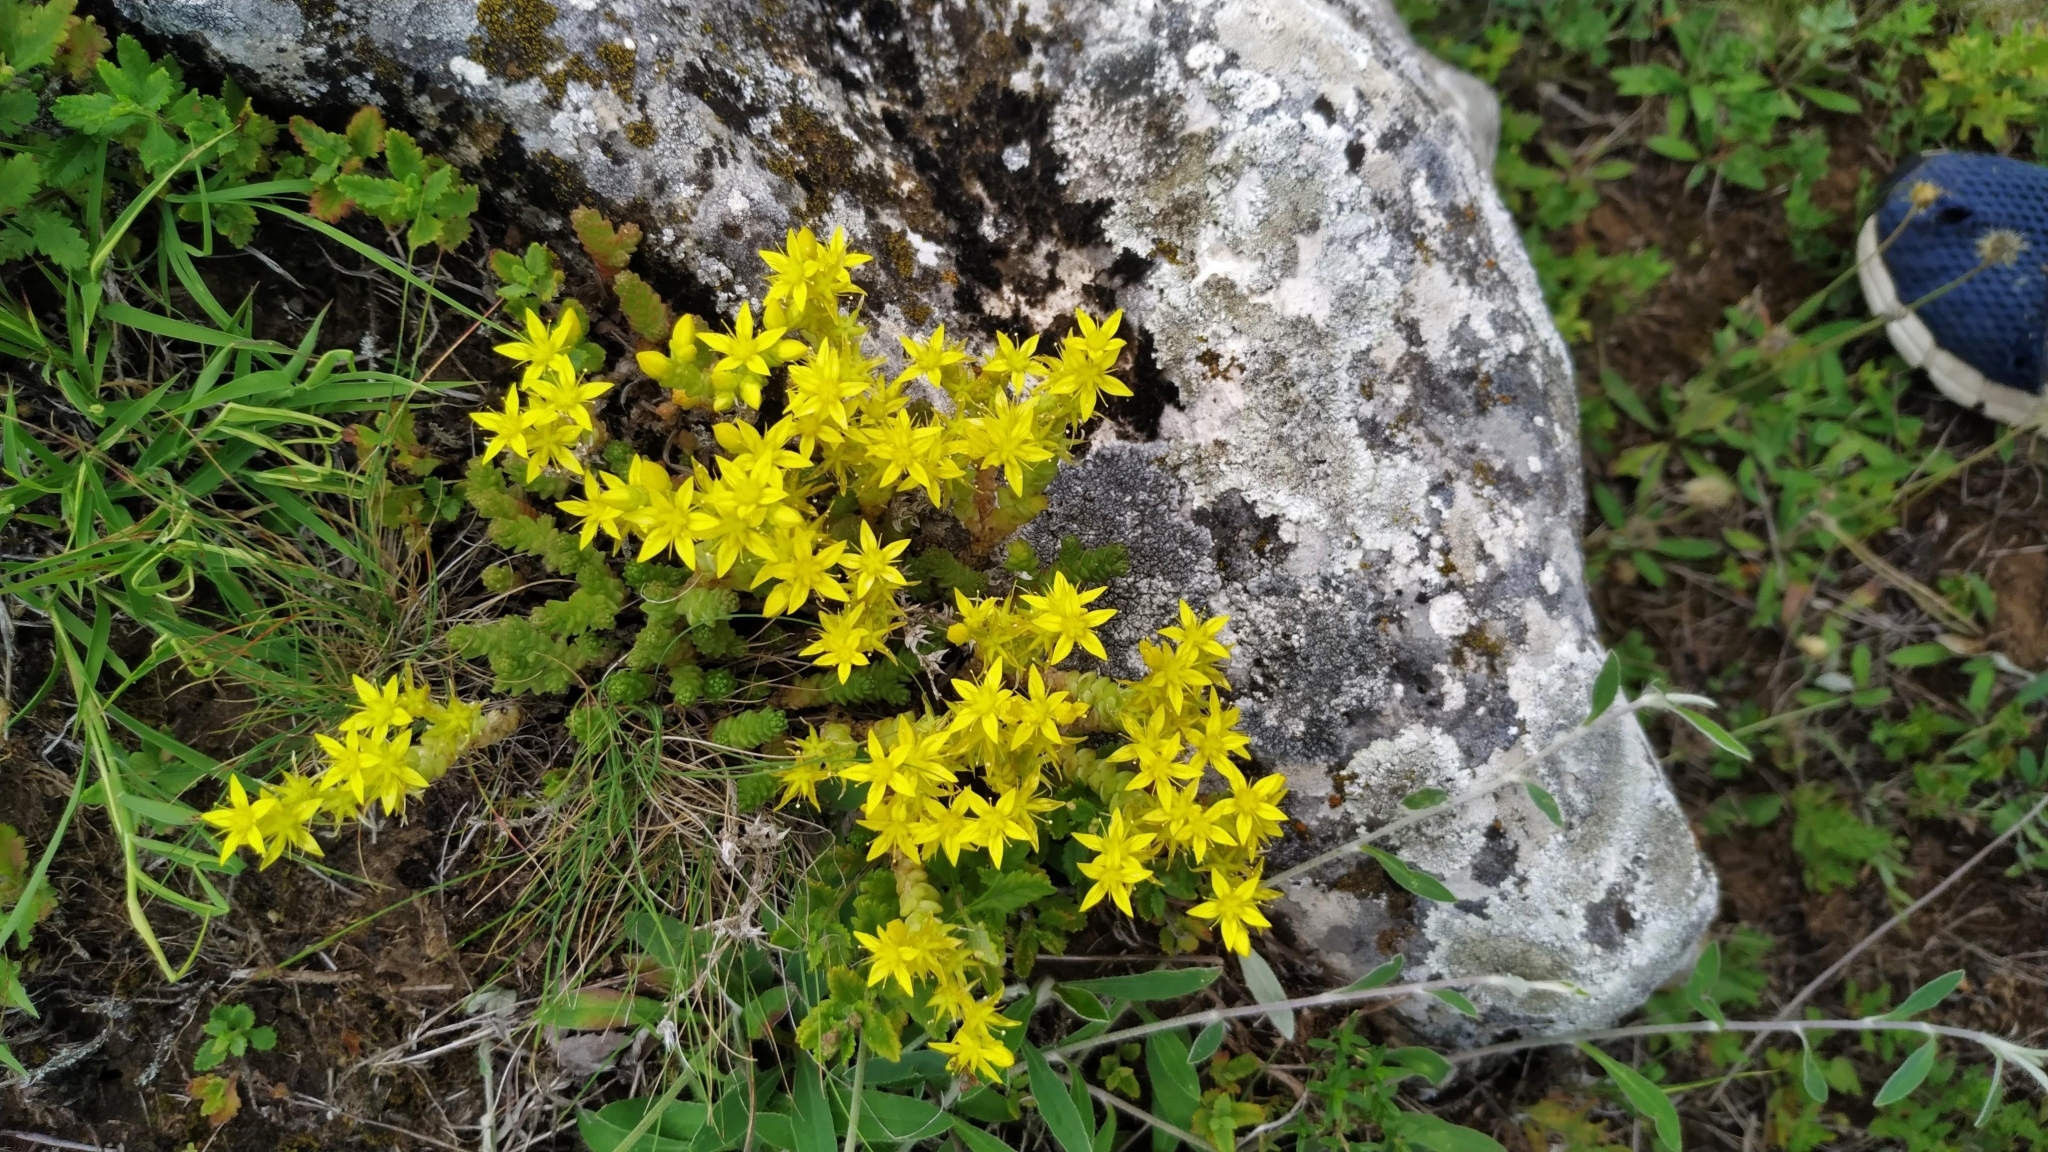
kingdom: Plantae
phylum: Tracheophyta
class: Magnoliopsida
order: Saxifragales
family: Crassulaceae
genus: Sedum
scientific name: Sedum acre
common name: Biting stonecrop
